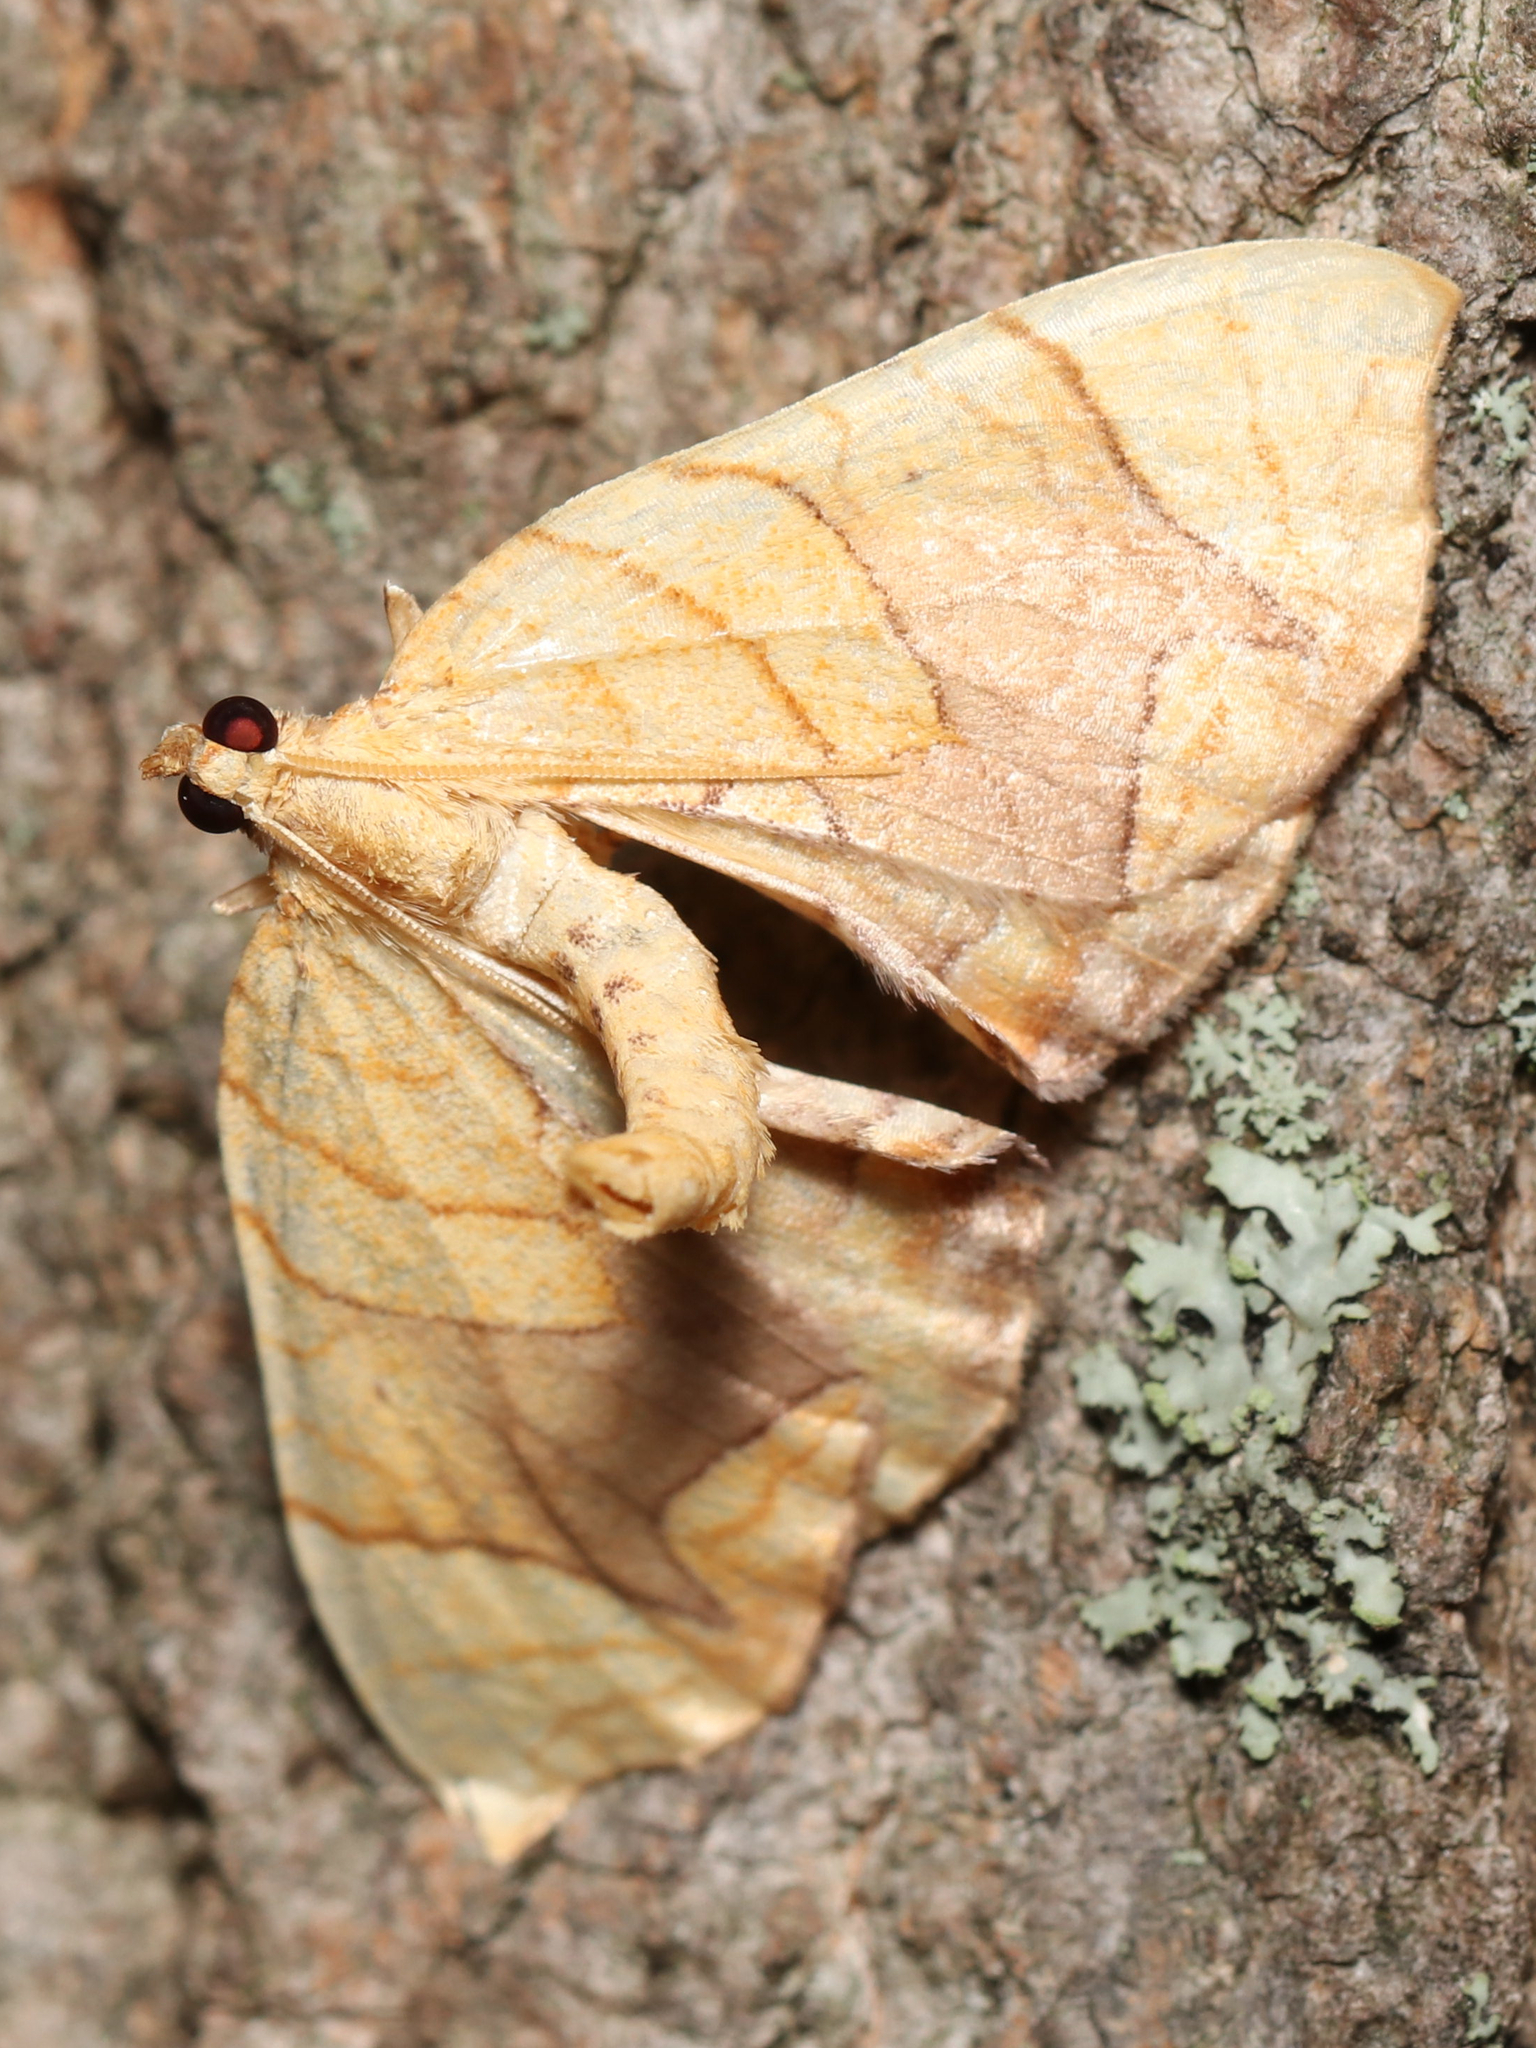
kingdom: Animalia
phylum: Arthropoda
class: Insecta
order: Lepidoptera
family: Geometridae
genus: Eulithis
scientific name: Eulithis diversilineata
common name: Grapevine looper
